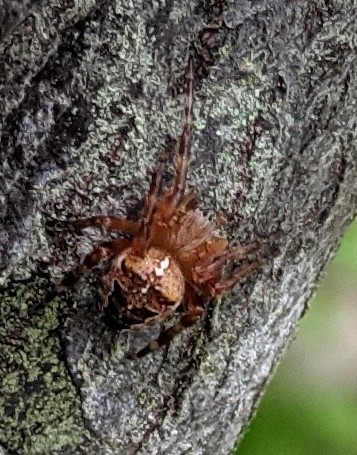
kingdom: Animalia
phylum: Arthropoda
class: Arachnida
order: Araneae
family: Araneidae
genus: Araneus
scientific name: Araneus diadematus
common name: Cross orbweaver
